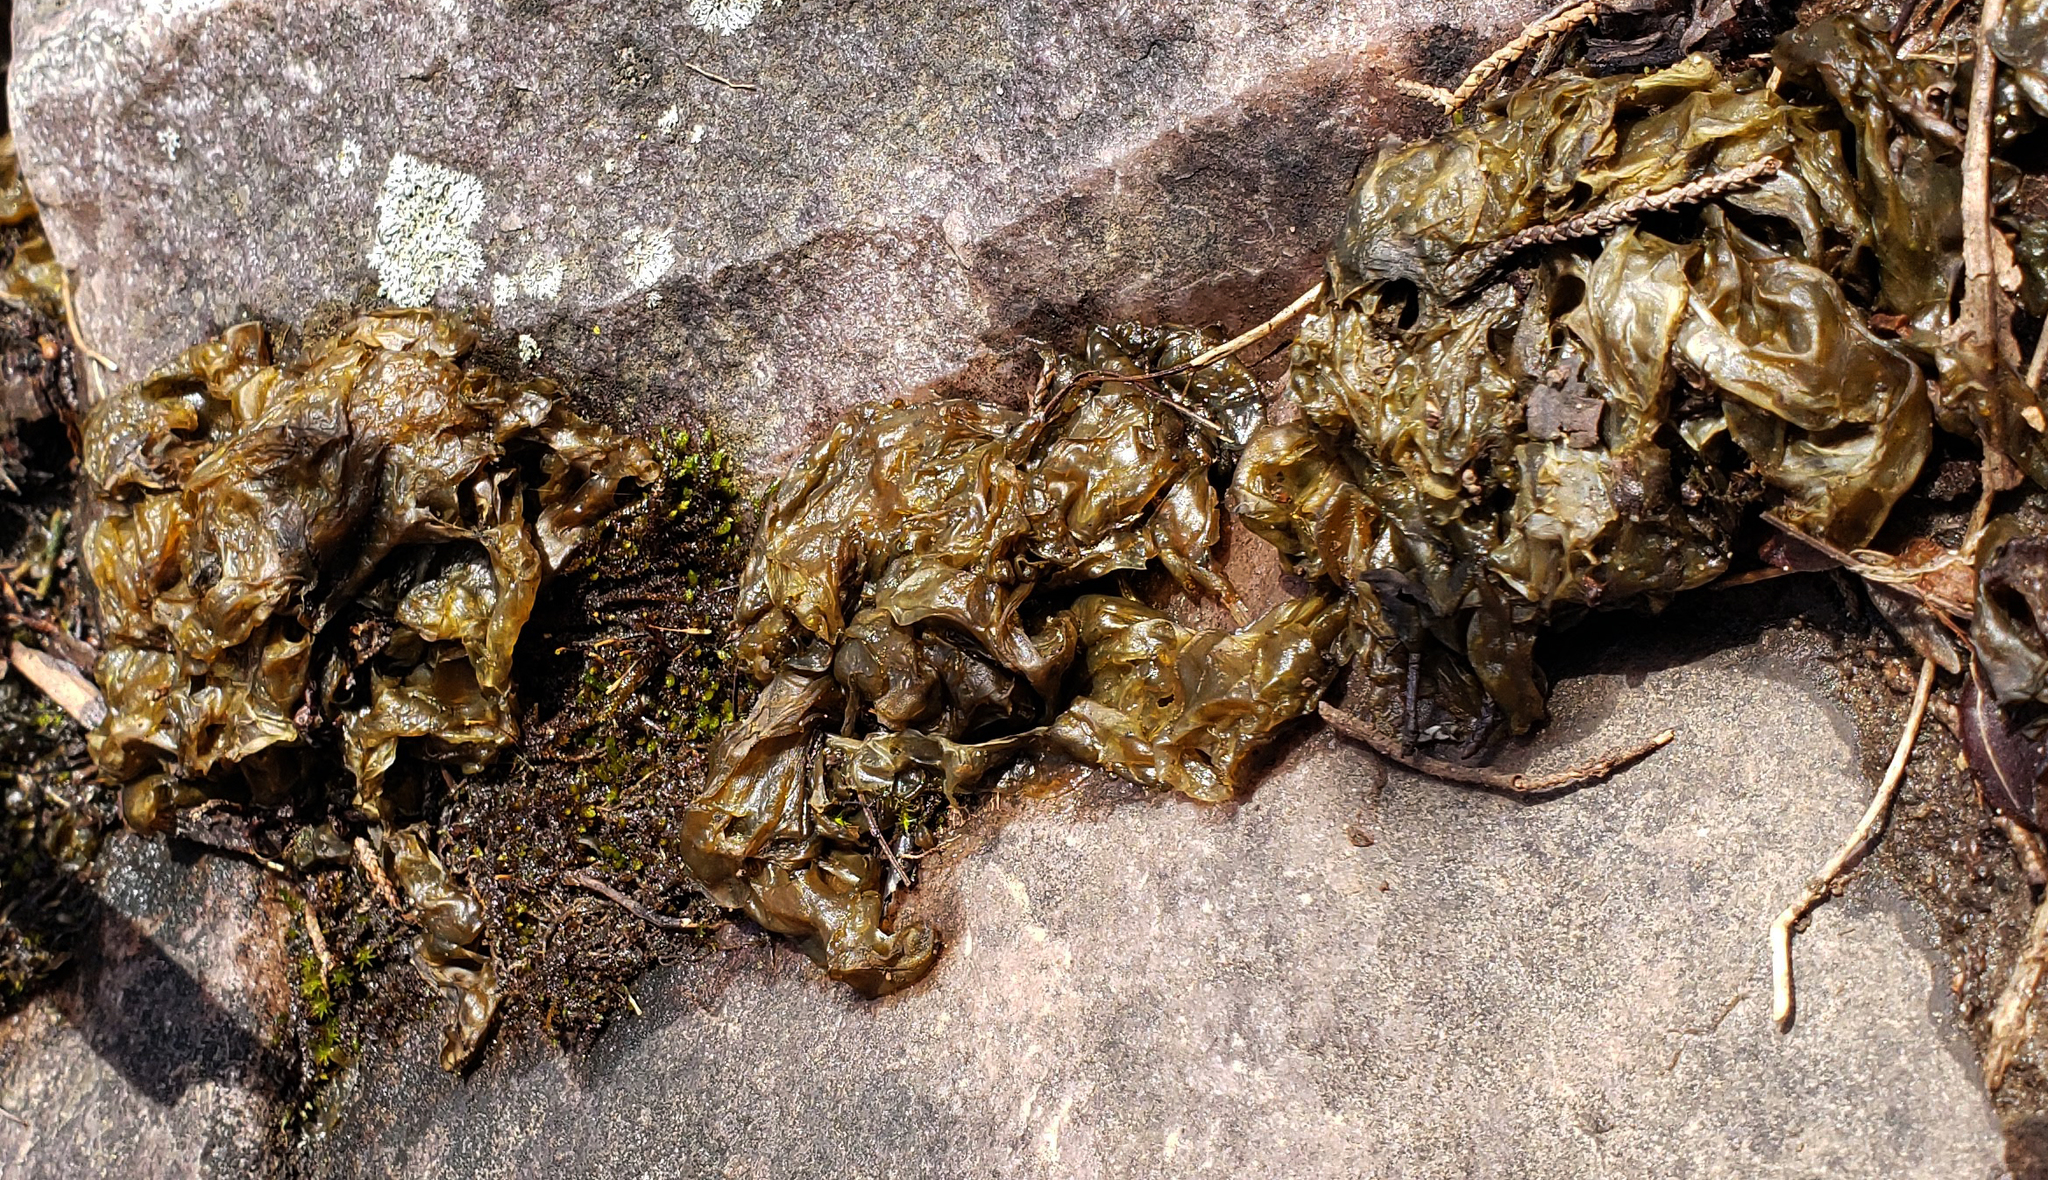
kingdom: Bacteria
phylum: Cyanobacteria
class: Cyanobacteriia
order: Cyanobacteriales
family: Nostocaceae
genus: Nostoc
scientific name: Nostoc commune
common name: Star jelly
